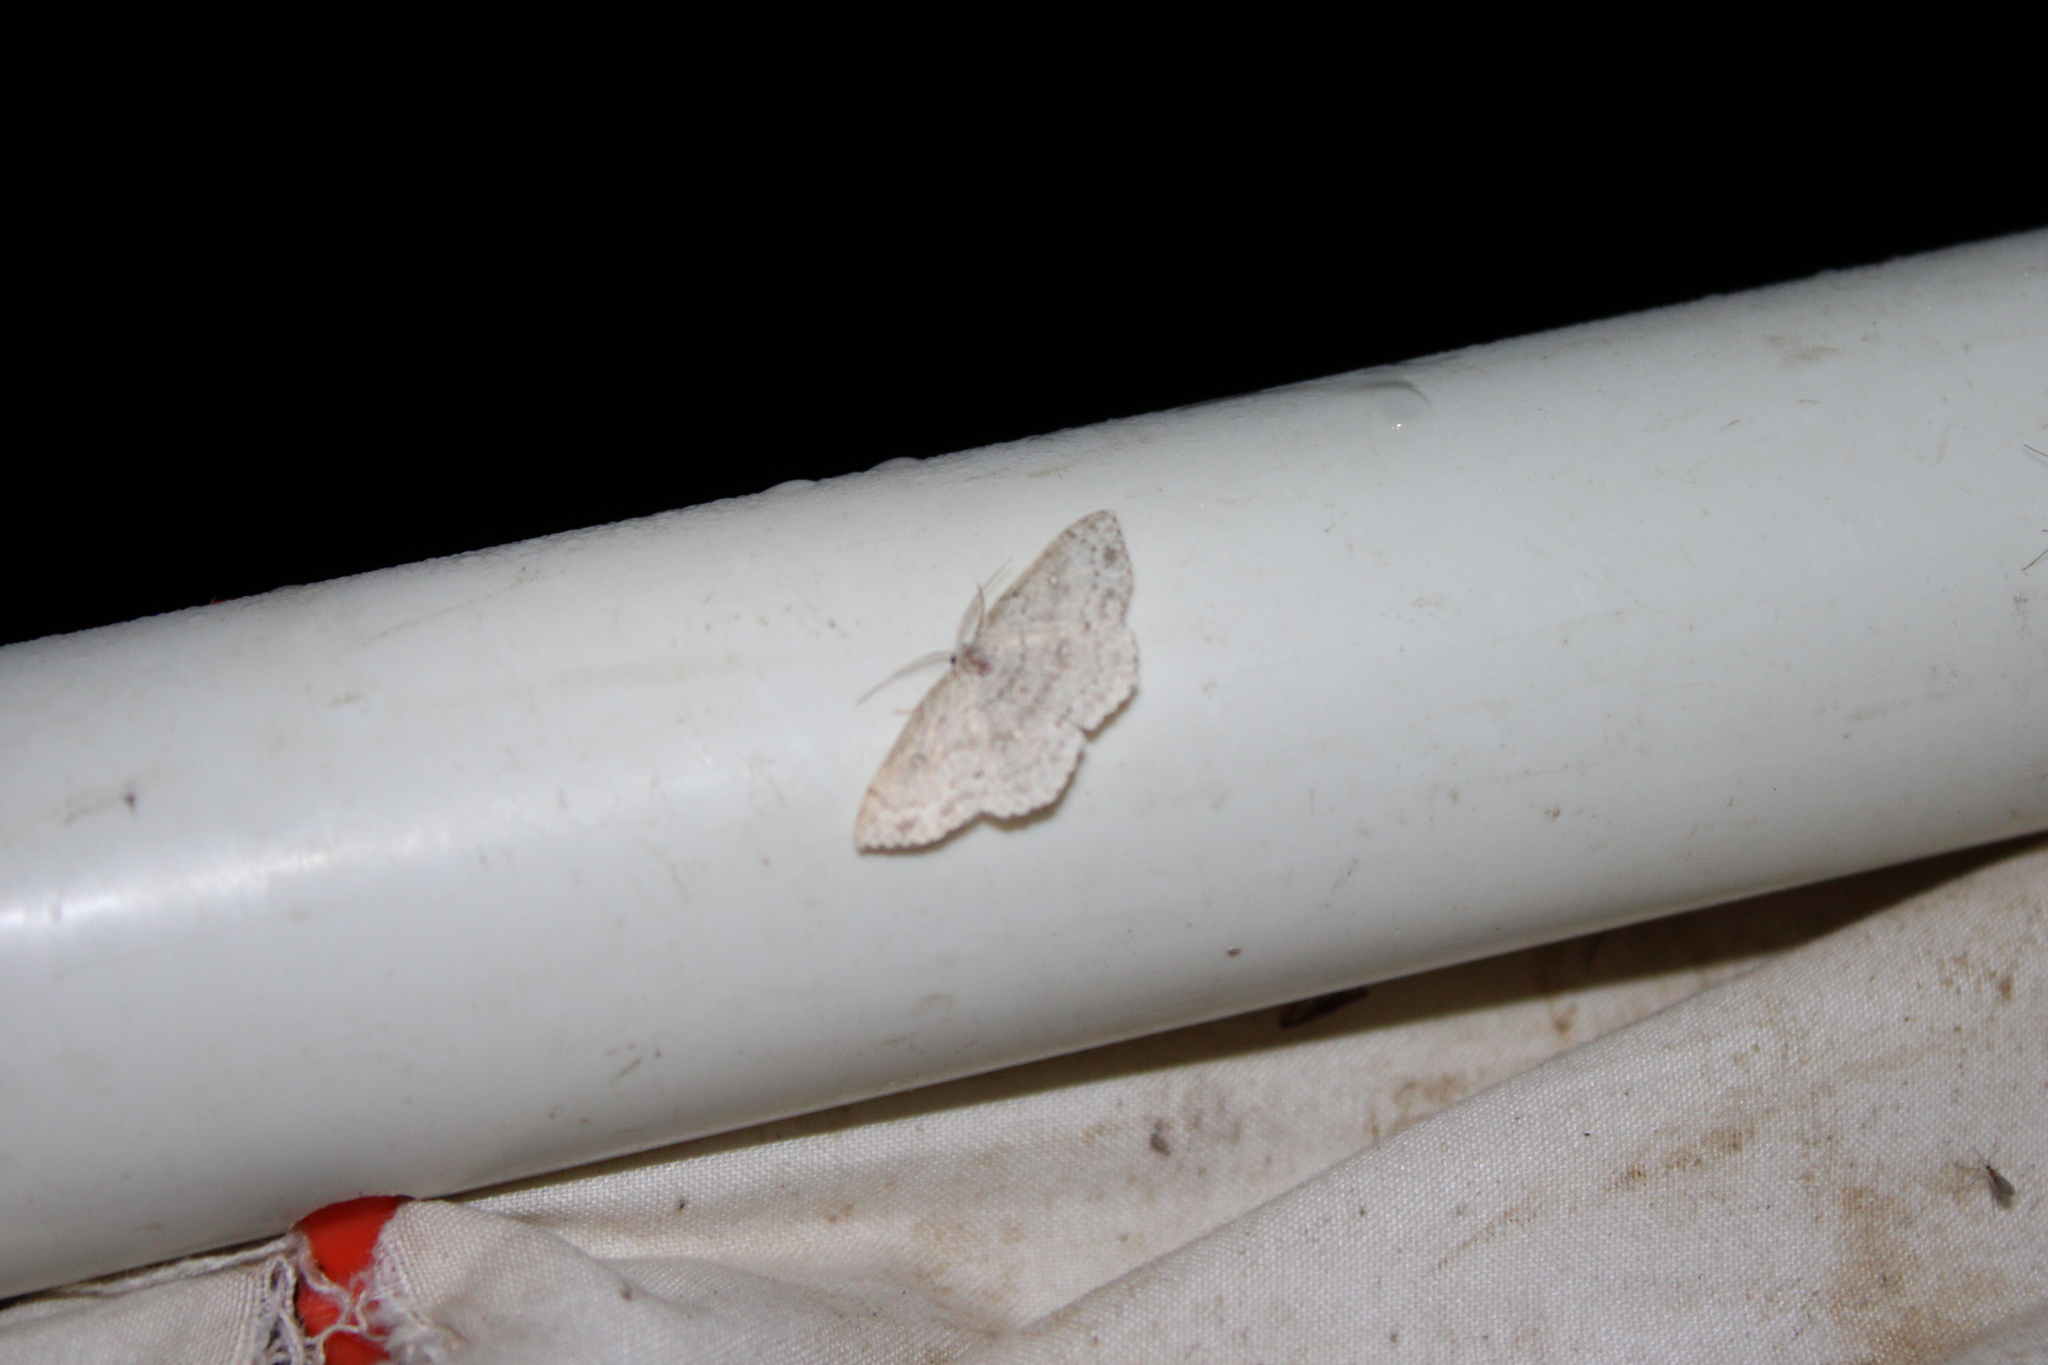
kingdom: Animalia
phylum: Arthropoda
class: Insecta
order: Lepidoptera
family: Geometridae
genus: Cyclophora
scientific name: Cyclophora pendulinaria
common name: Sweet fern geometer
